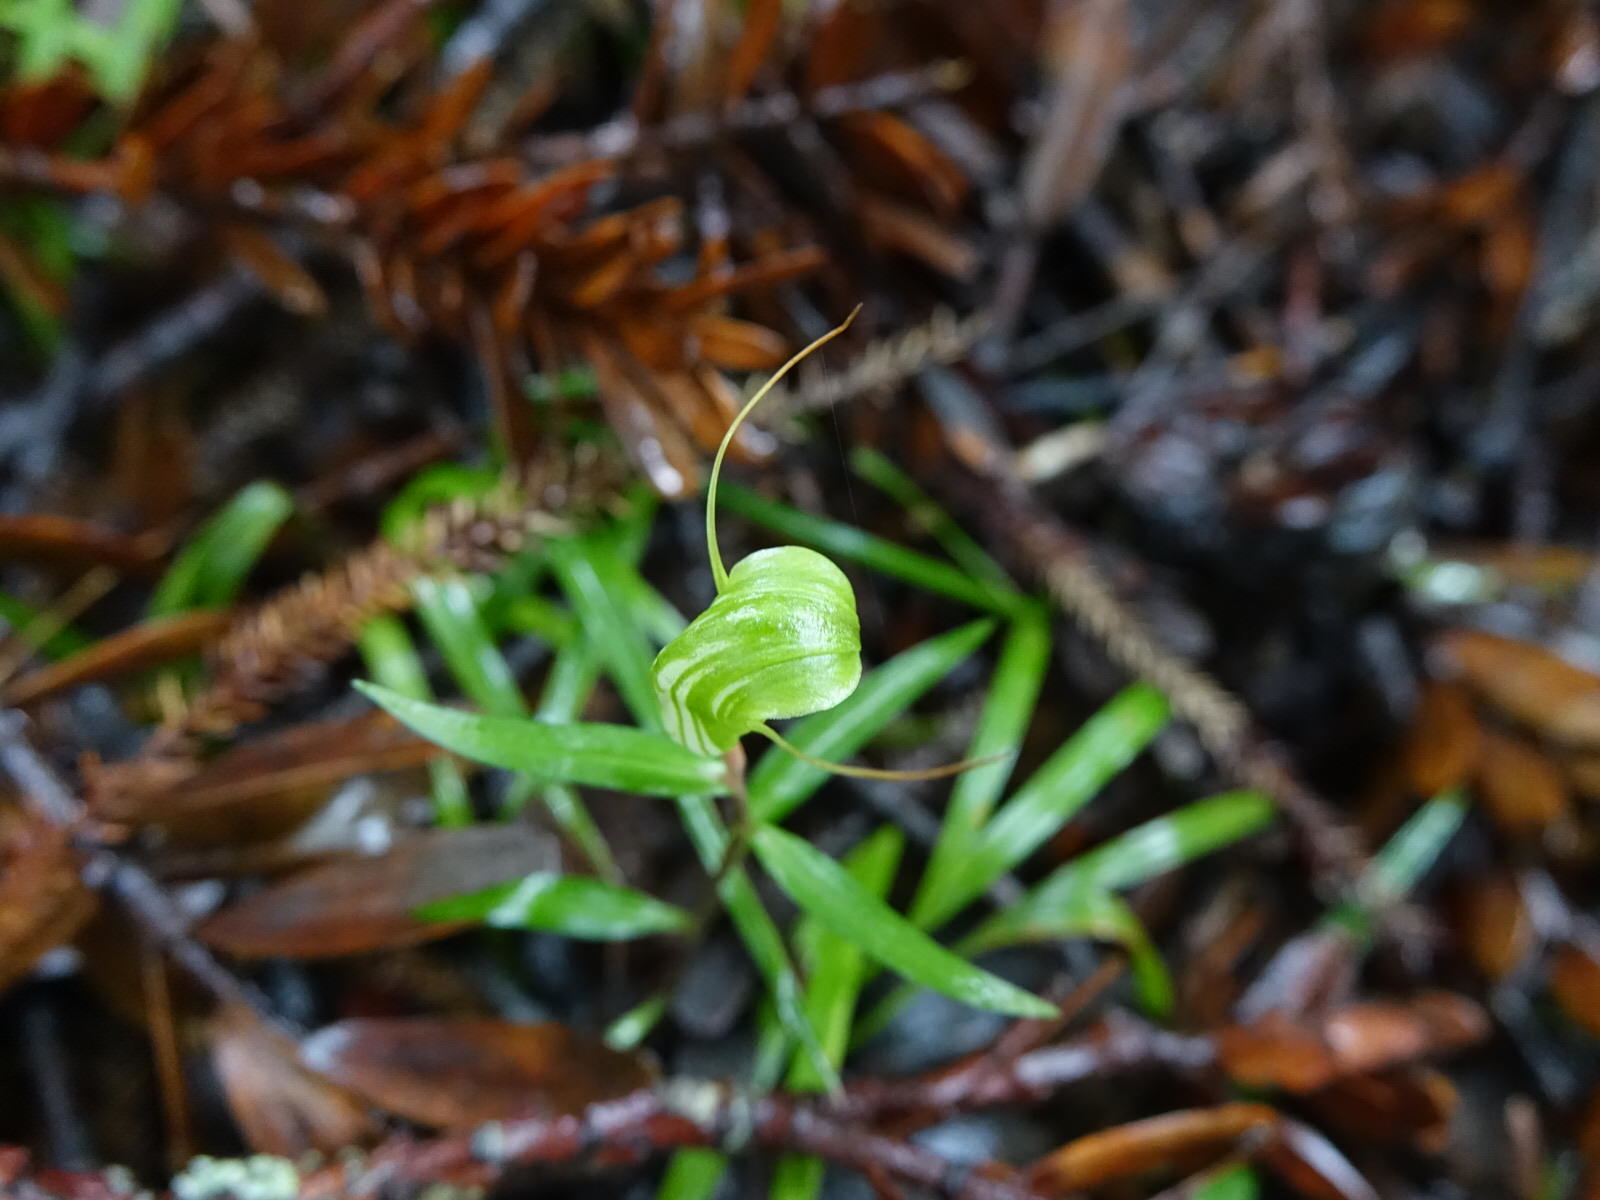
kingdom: Plantae
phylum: Tracheophyta
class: Liliopsida
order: Asparagales
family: Orchidaceae
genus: Pterostylis
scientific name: Pterostylis brumalis
